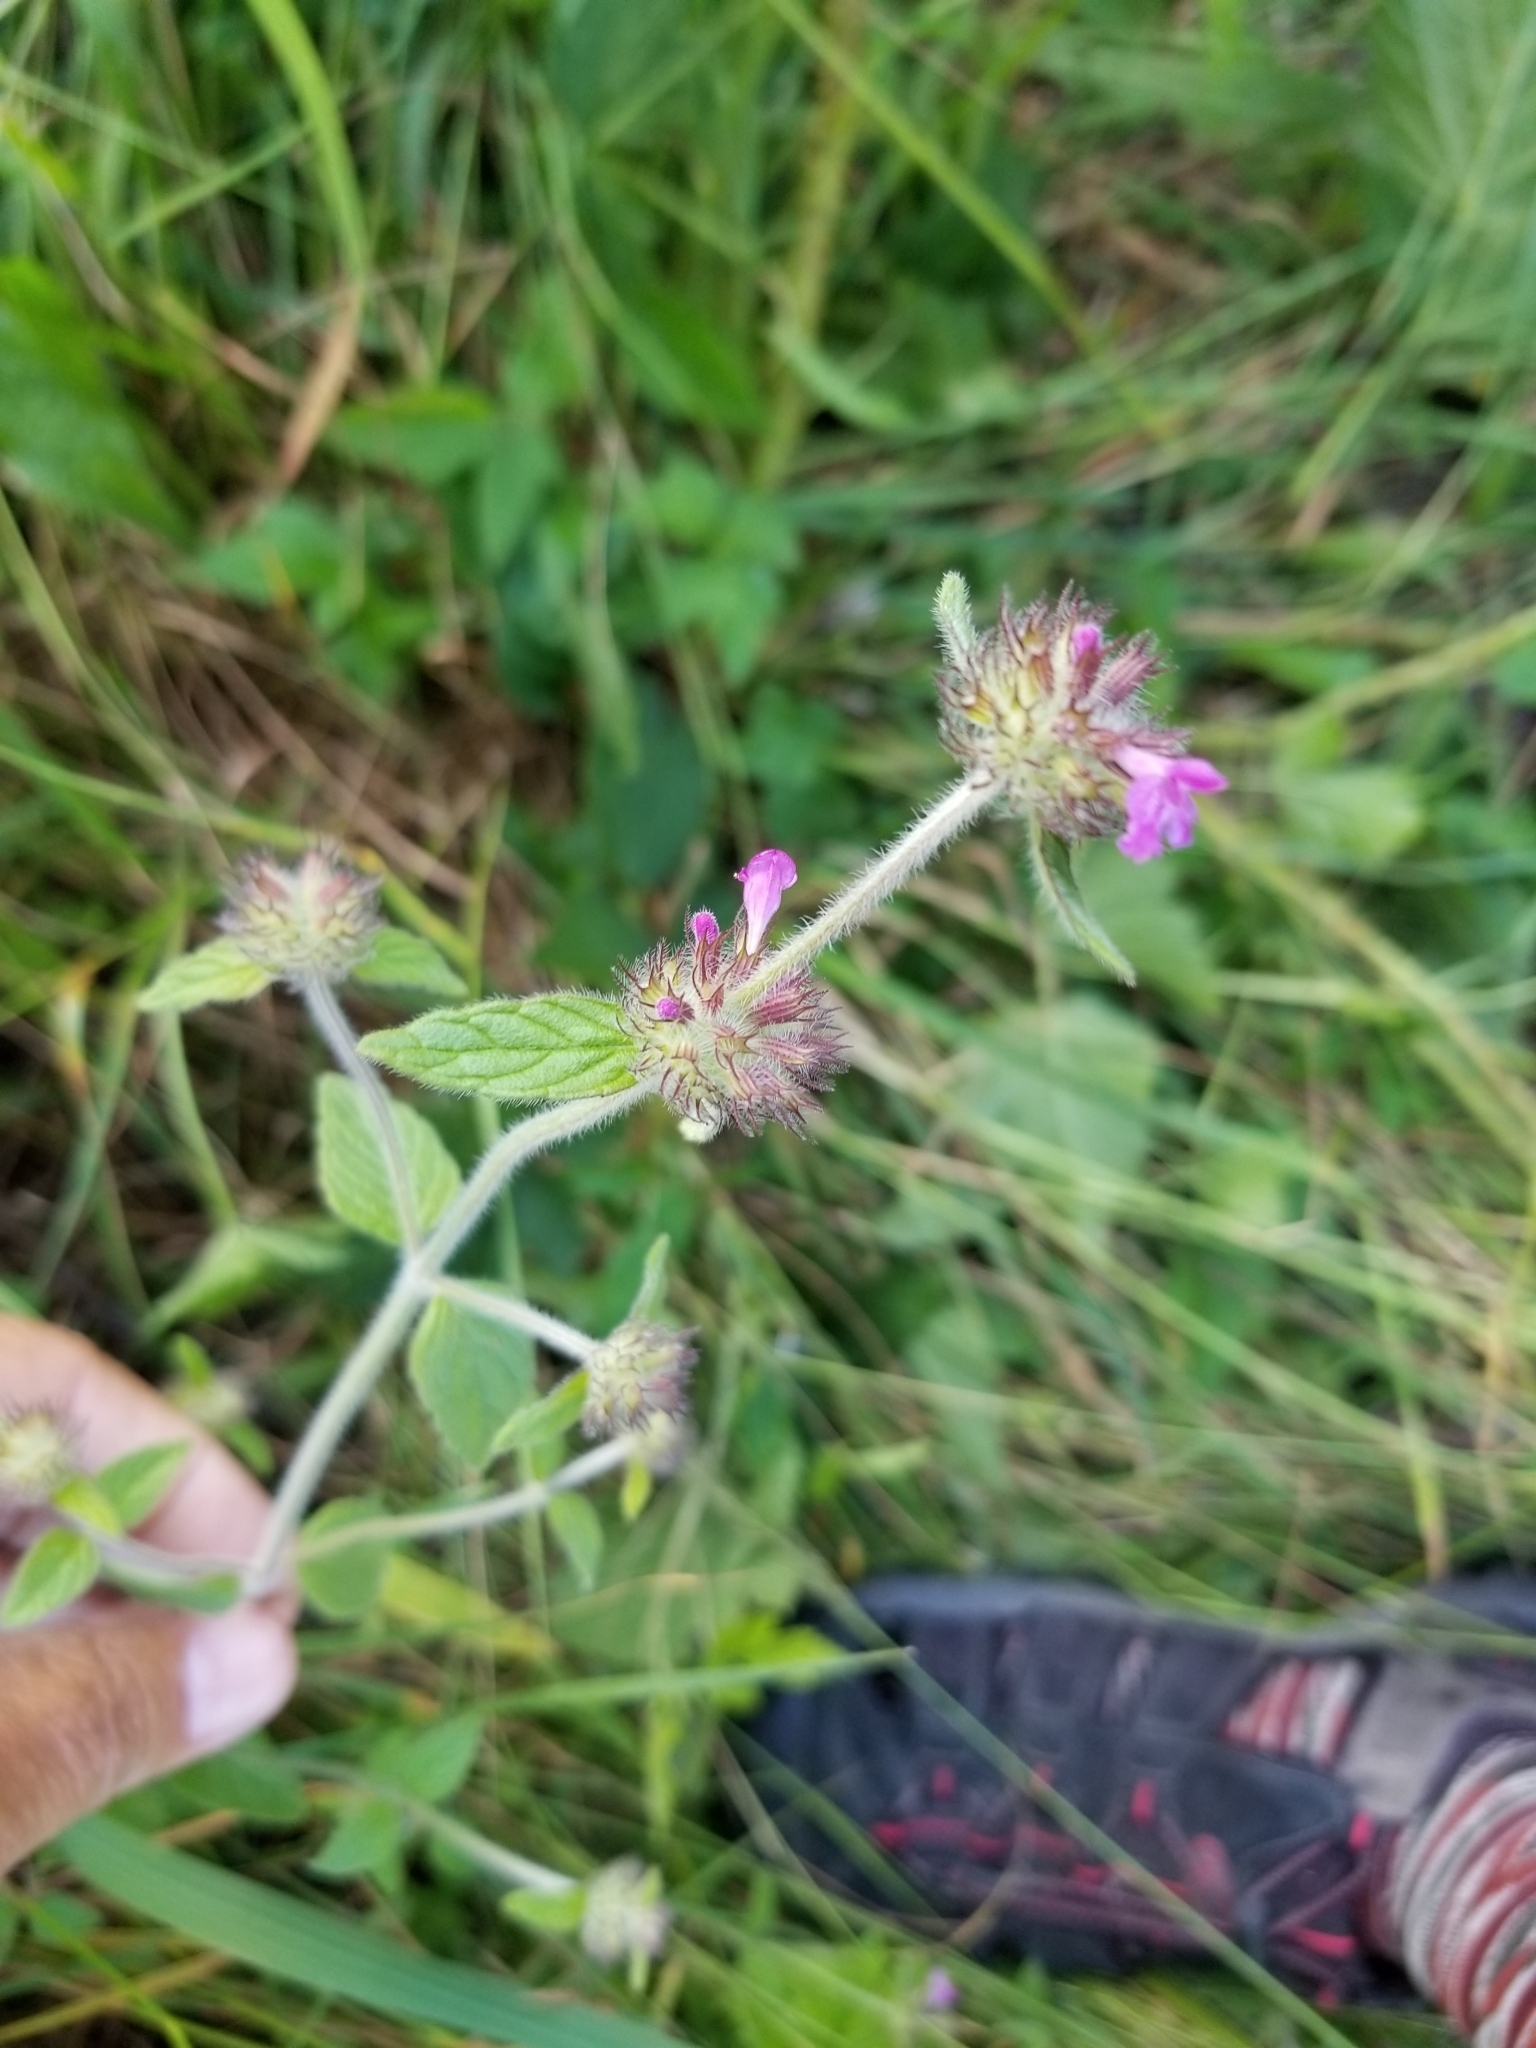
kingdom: Plantae
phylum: Tracheophyta
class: Magnoliopsida
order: Lamiales
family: Lamiaceae
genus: Clinopodium
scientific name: Clinopodium vulgare
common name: Wild basil
